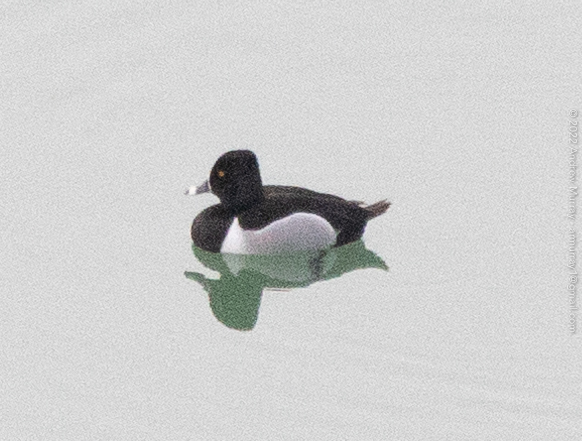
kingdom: Animalia
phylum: Chordata
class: Aves
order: Anseriformes
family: Anatidae
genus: Aythya
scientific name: Aythya collaris
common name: Ring-necked duck
